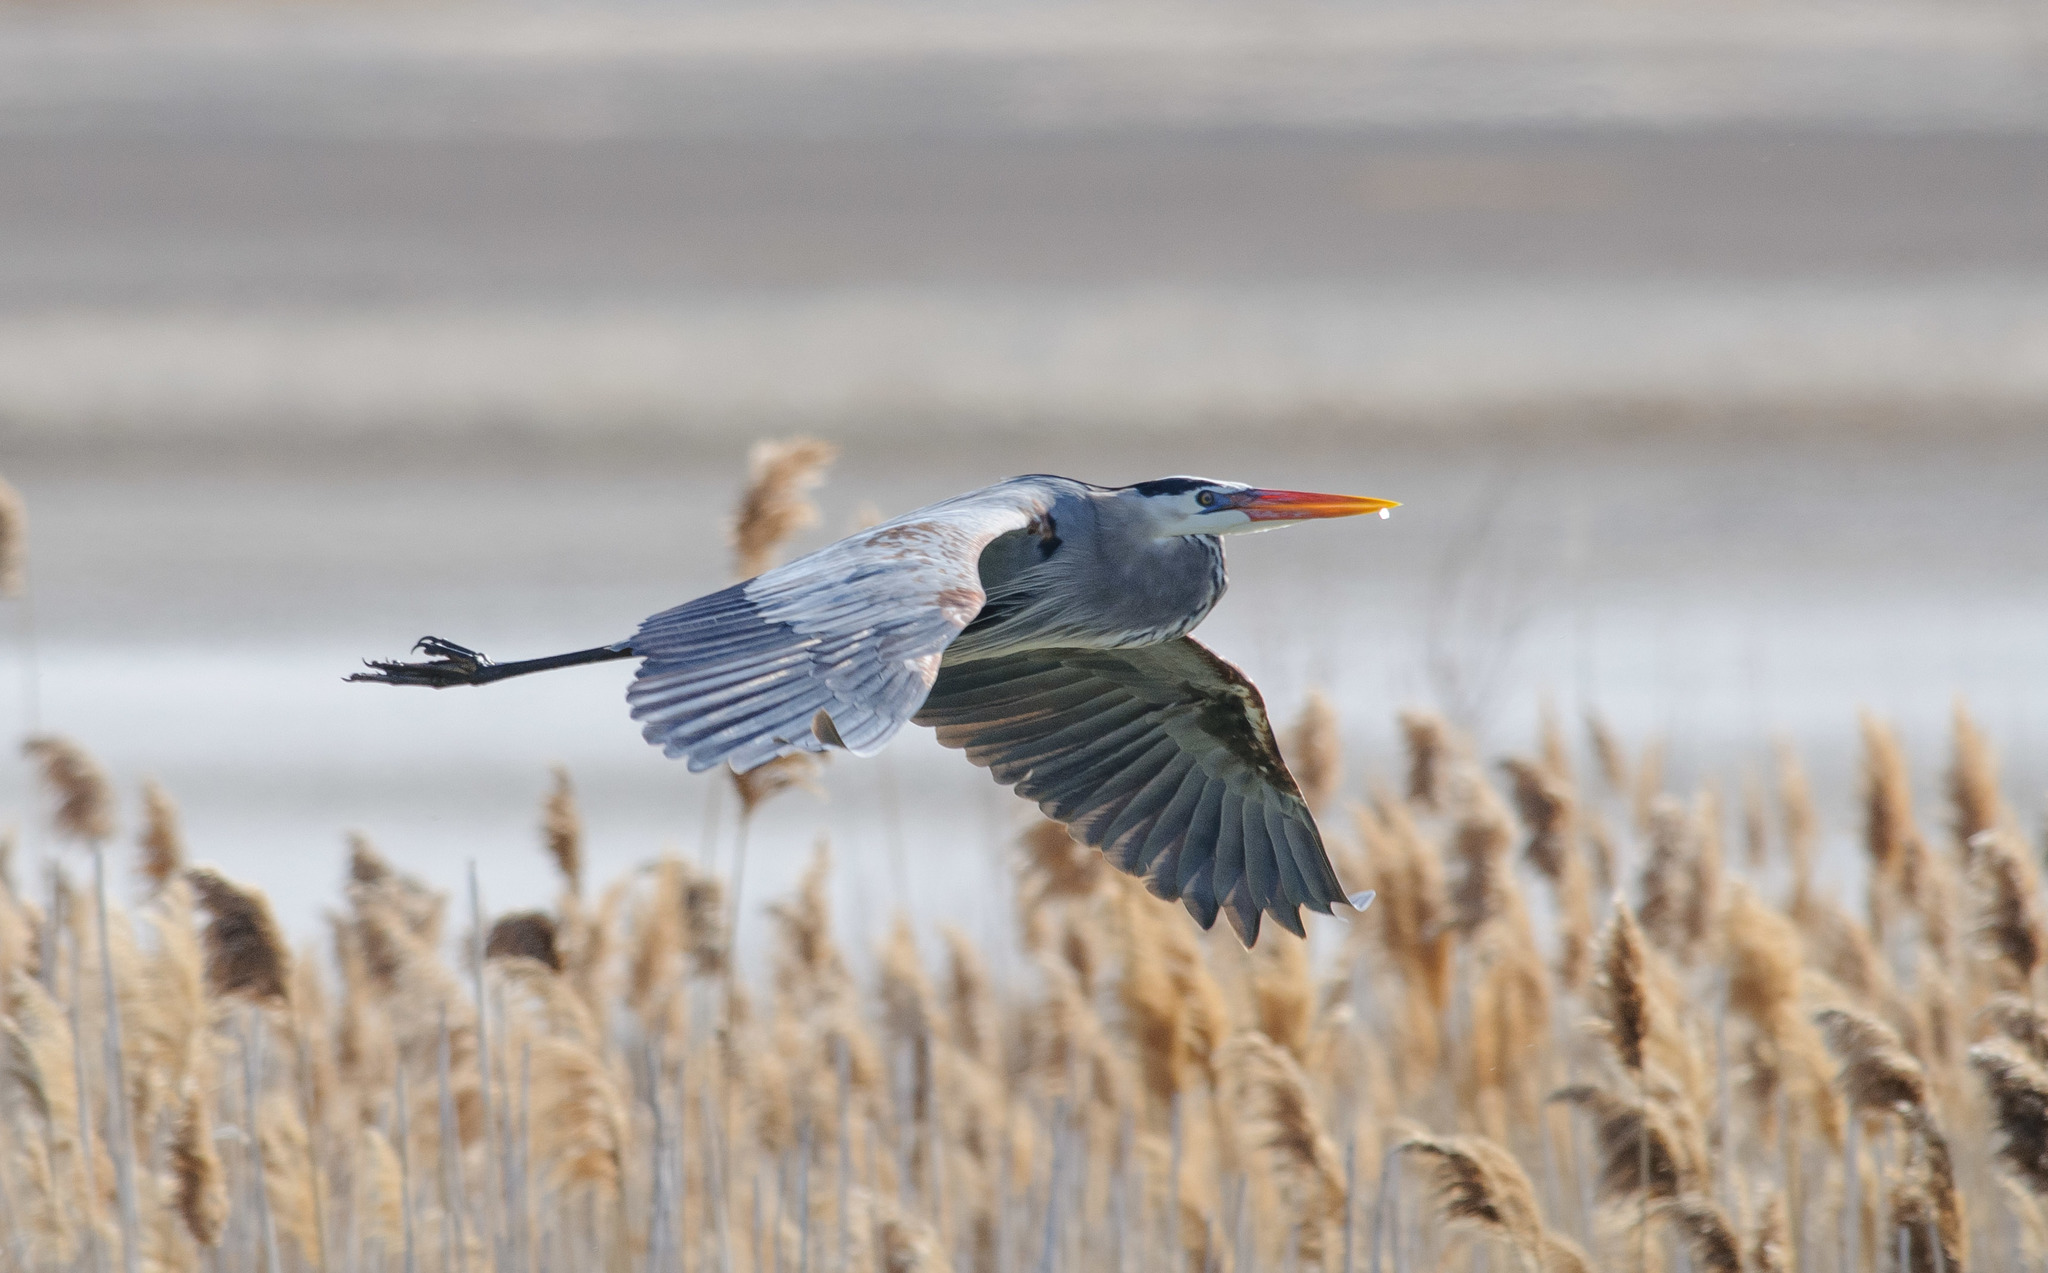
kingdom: Animalia
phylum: Chordata
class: Aves
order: Pelecaniformes
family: Ardeidae
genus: Ardea
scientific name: Ardea herodias
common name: Great blue heron
